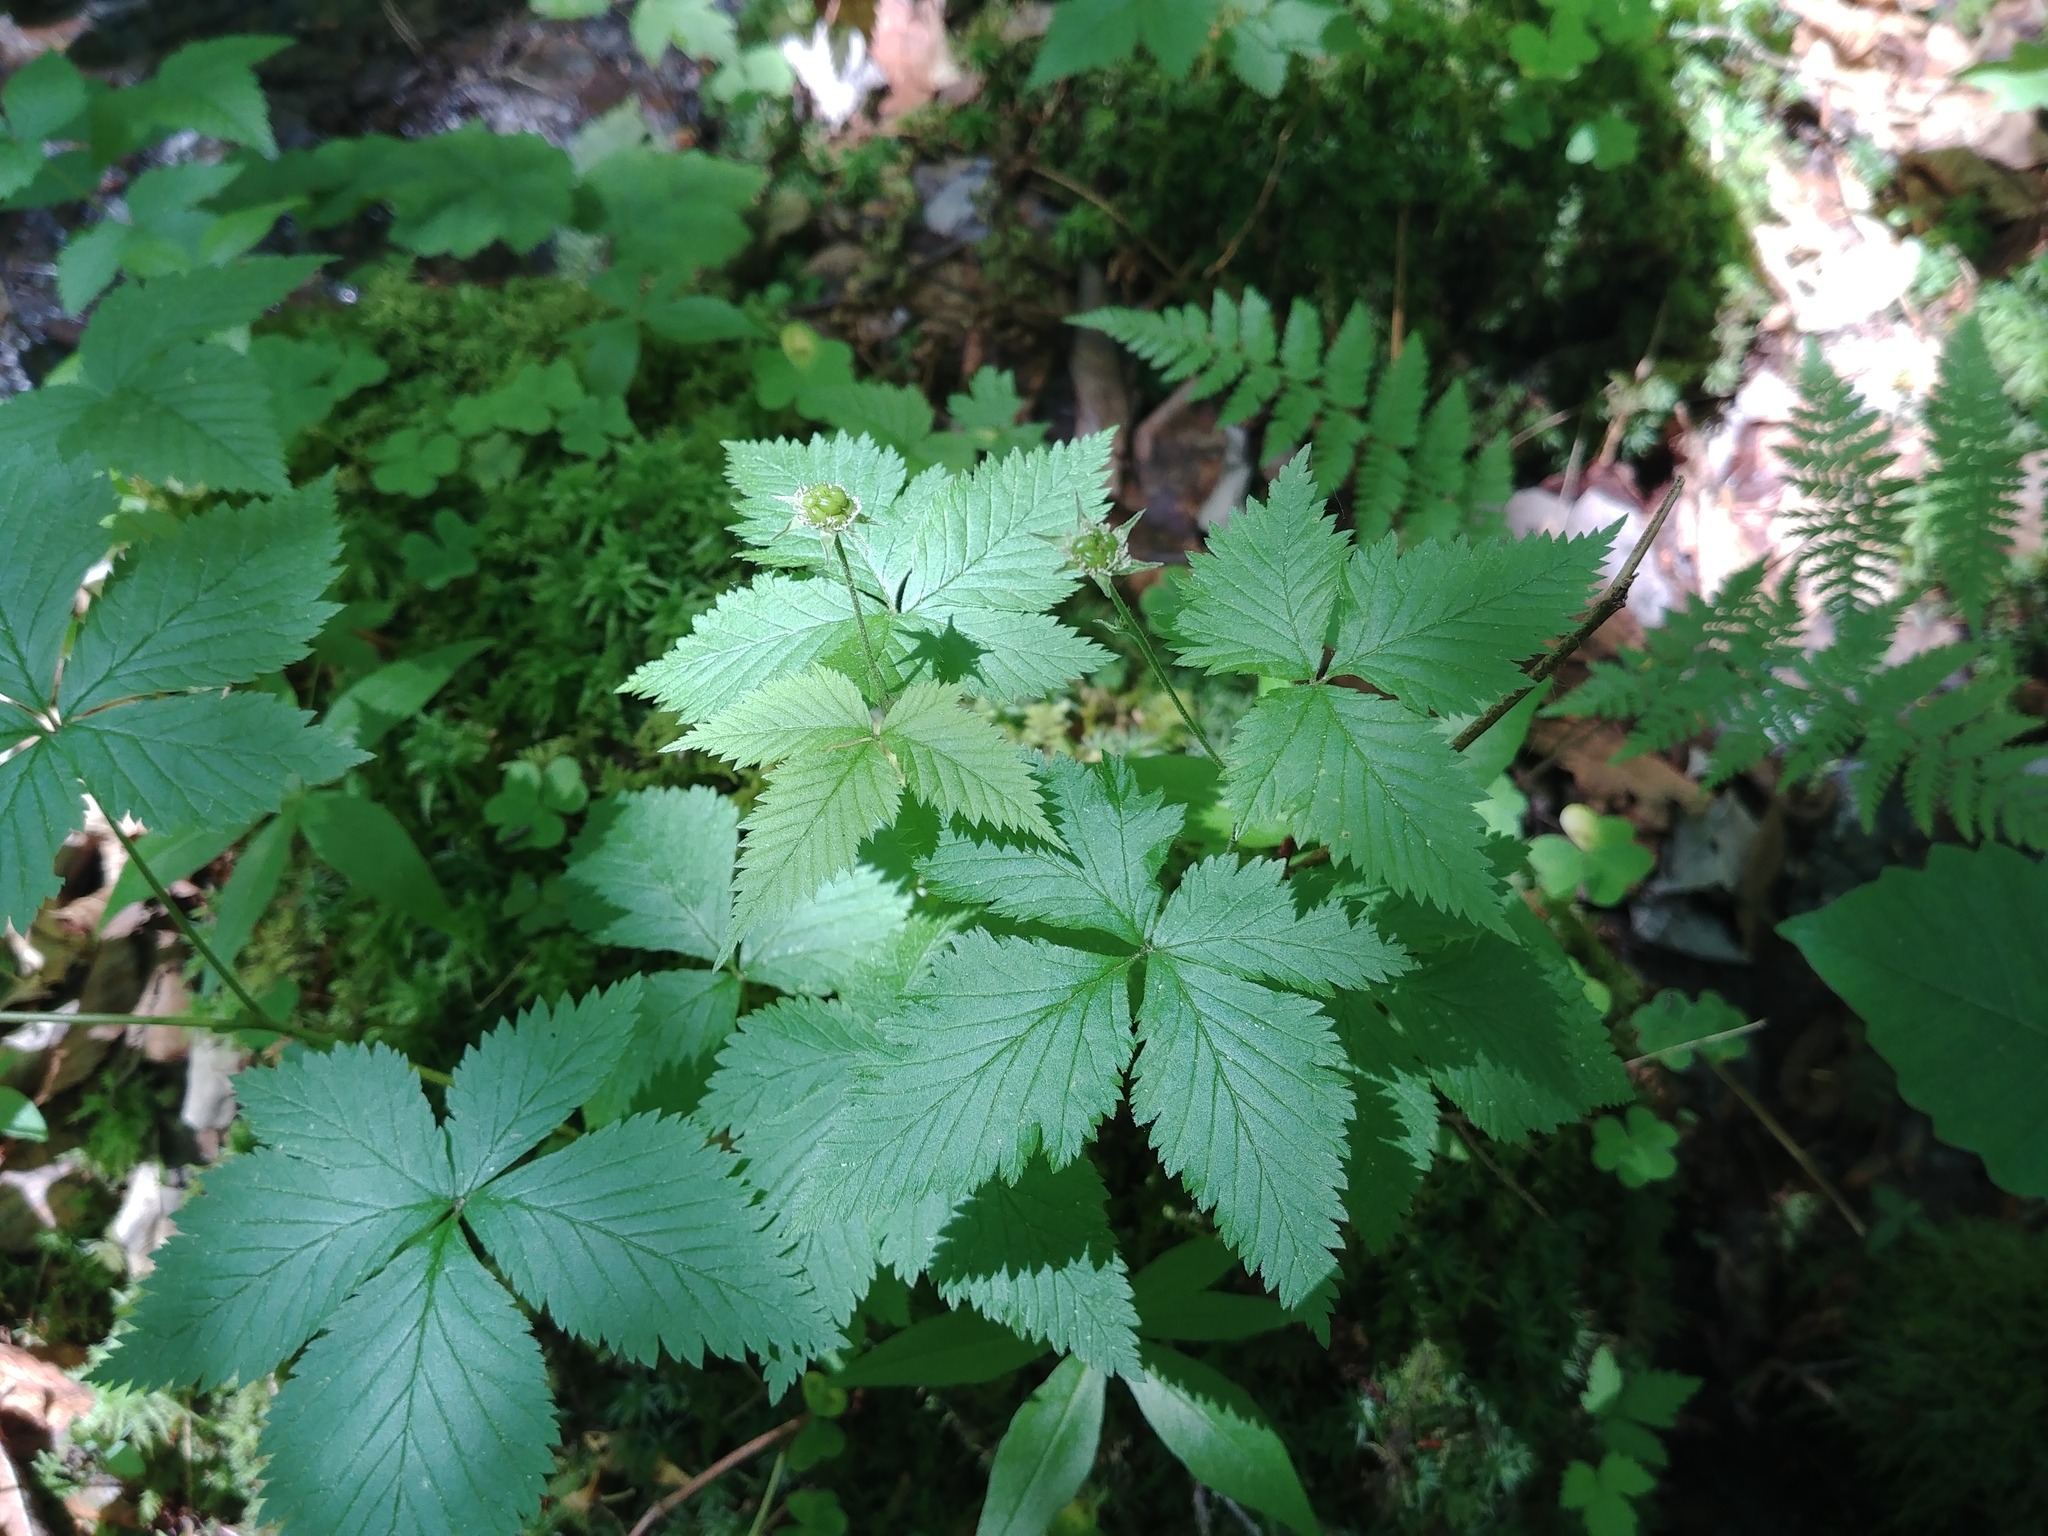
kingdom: Plantae
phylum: Tracheophyta
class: Magnoliopsida
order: Rosales
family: Rosaceae
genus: Rubus
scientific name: Rubus pubescens
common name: Dwarf raspberry
